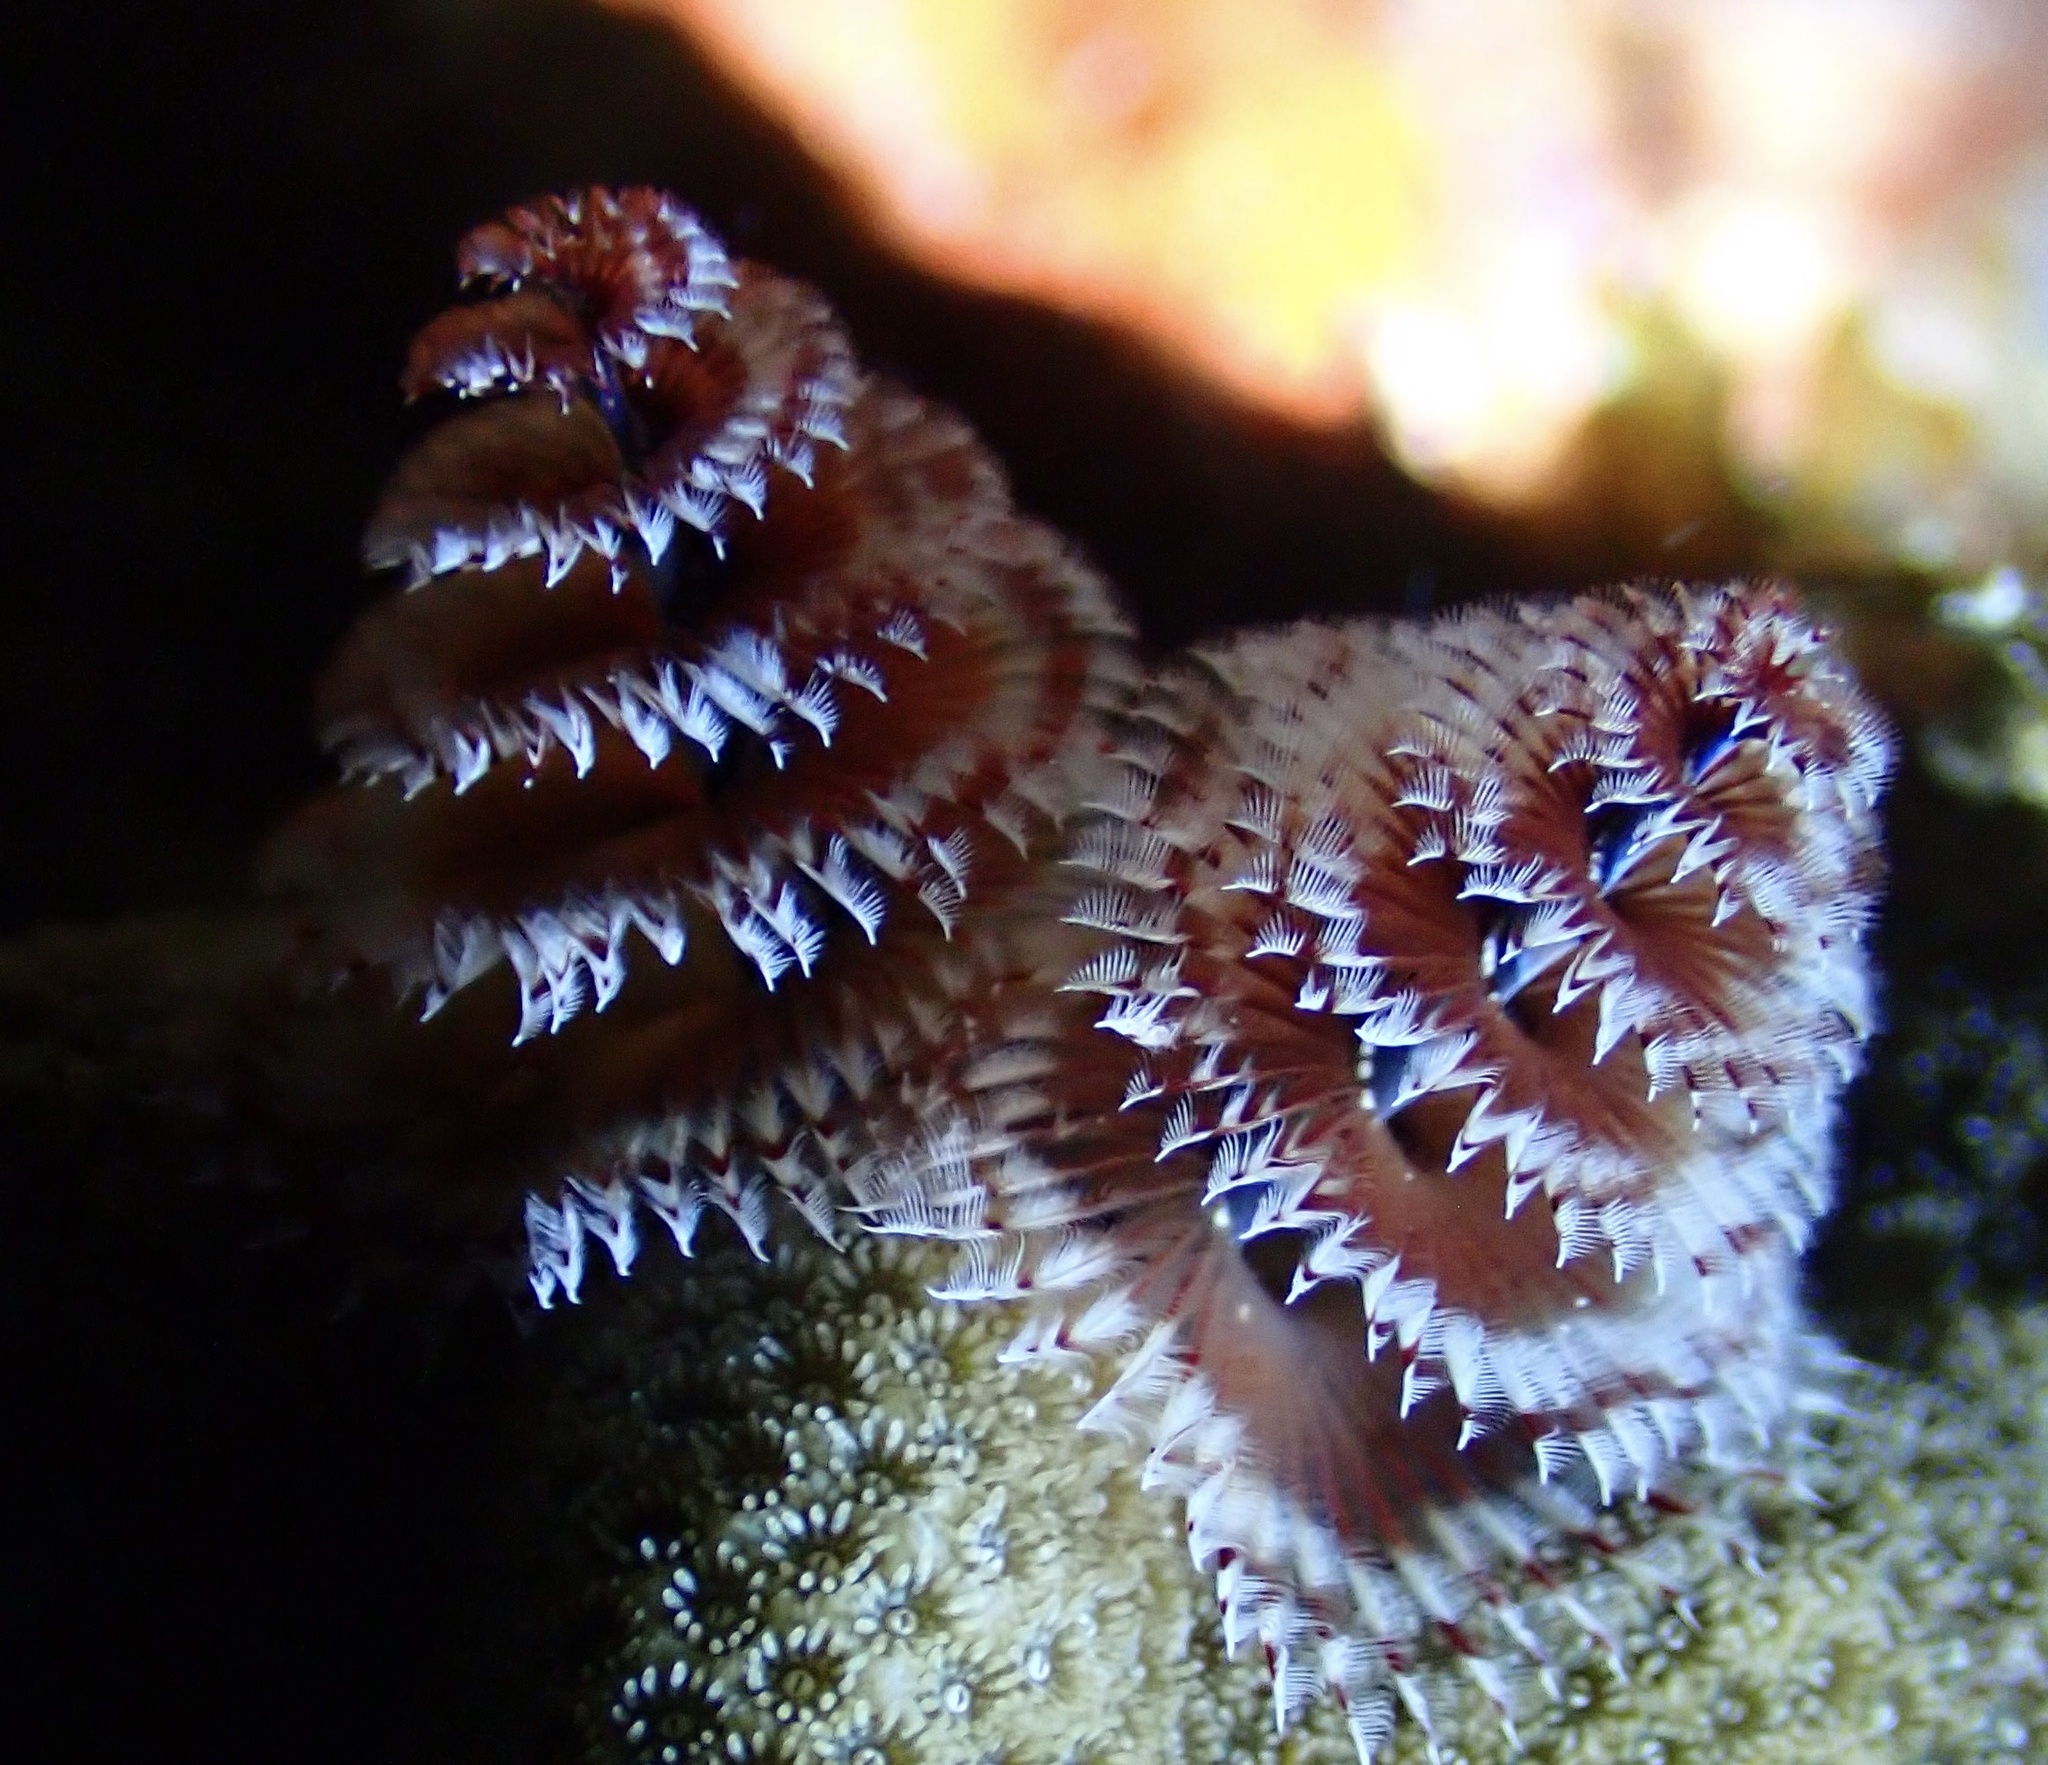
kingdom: Animalia
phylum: Annelida
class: Polychaeta
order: Sabellida
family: Serpulidae
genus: Spirobranchus
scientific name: Spirobranchus giganteus
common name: Christmas tree worm
